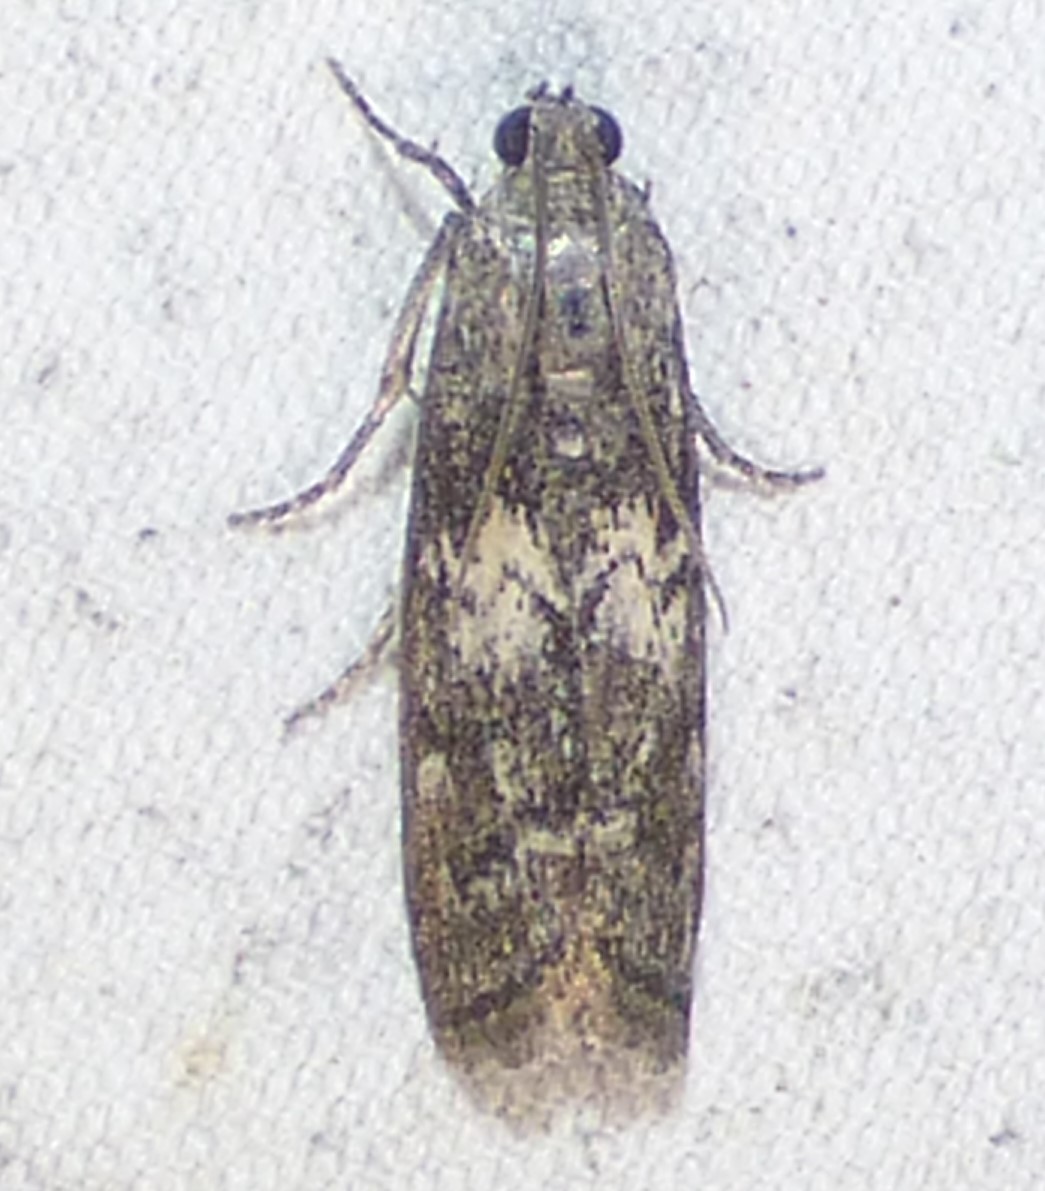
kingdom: Animalia
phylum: Arthropoda
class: Insecta
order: Lepidoptera
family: Pyralidae
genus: Tacoma
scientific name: Tacoma feriella
